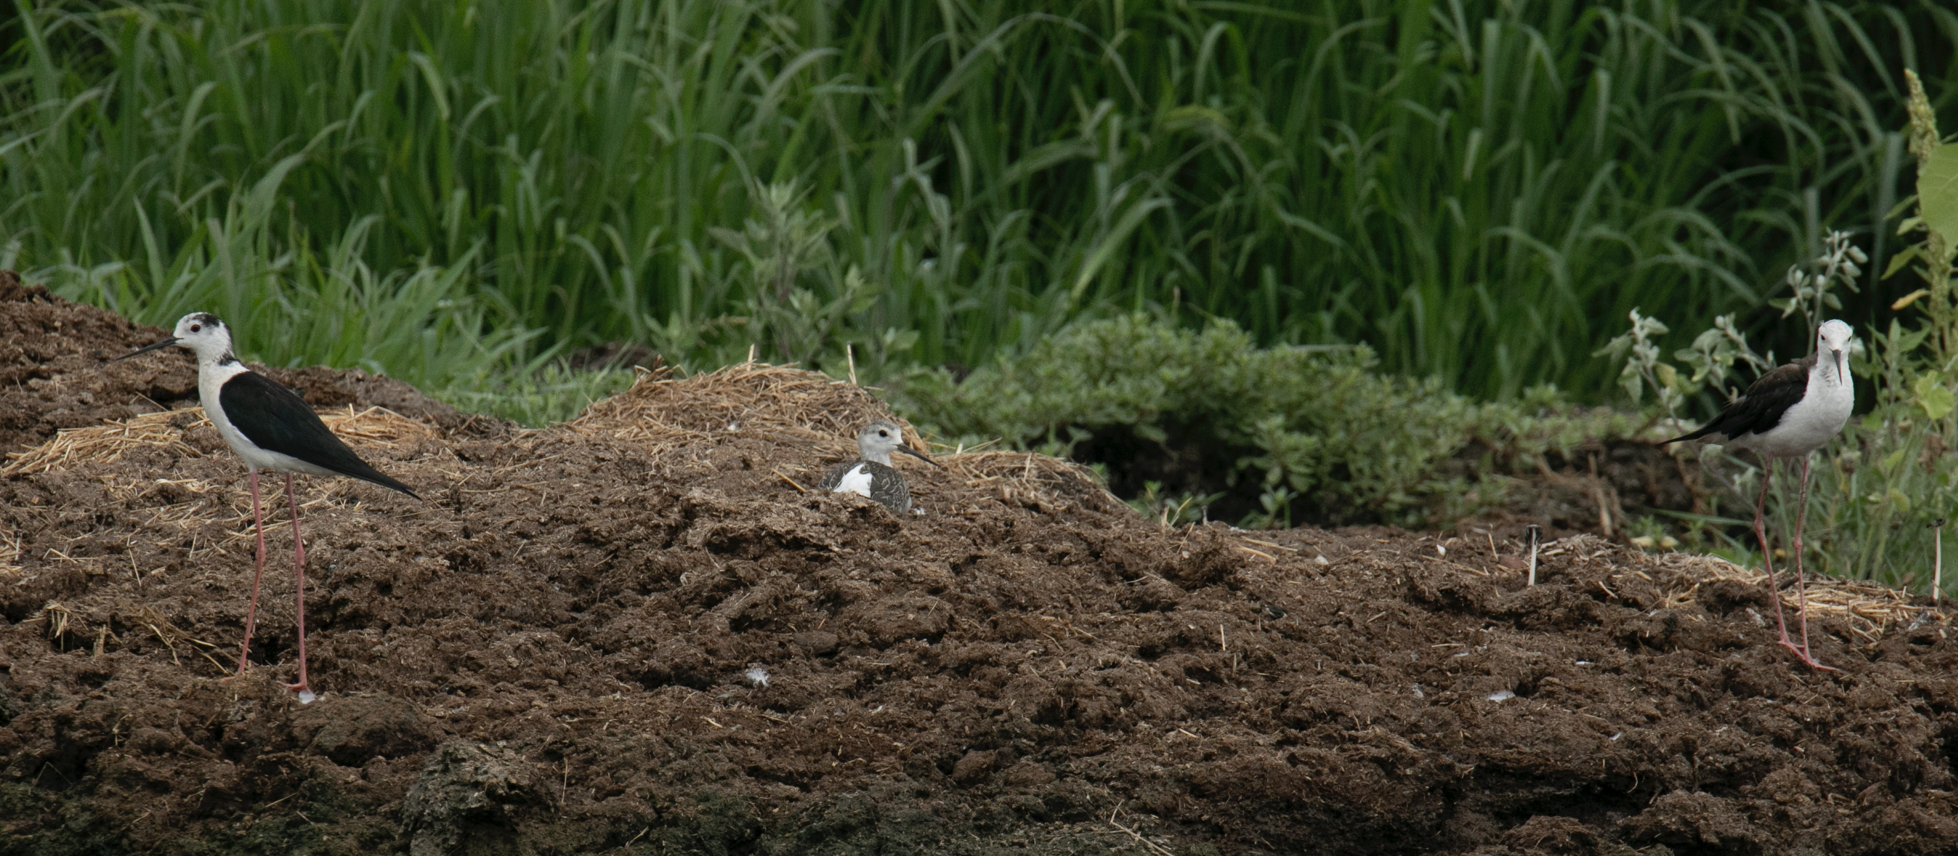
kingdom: Animalia
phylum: Chordata
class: Aves
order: Charadriiformes
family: Recurvirostridae
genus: Himantopus
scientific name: Himantopus himantopus
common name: Black-winged stilt
